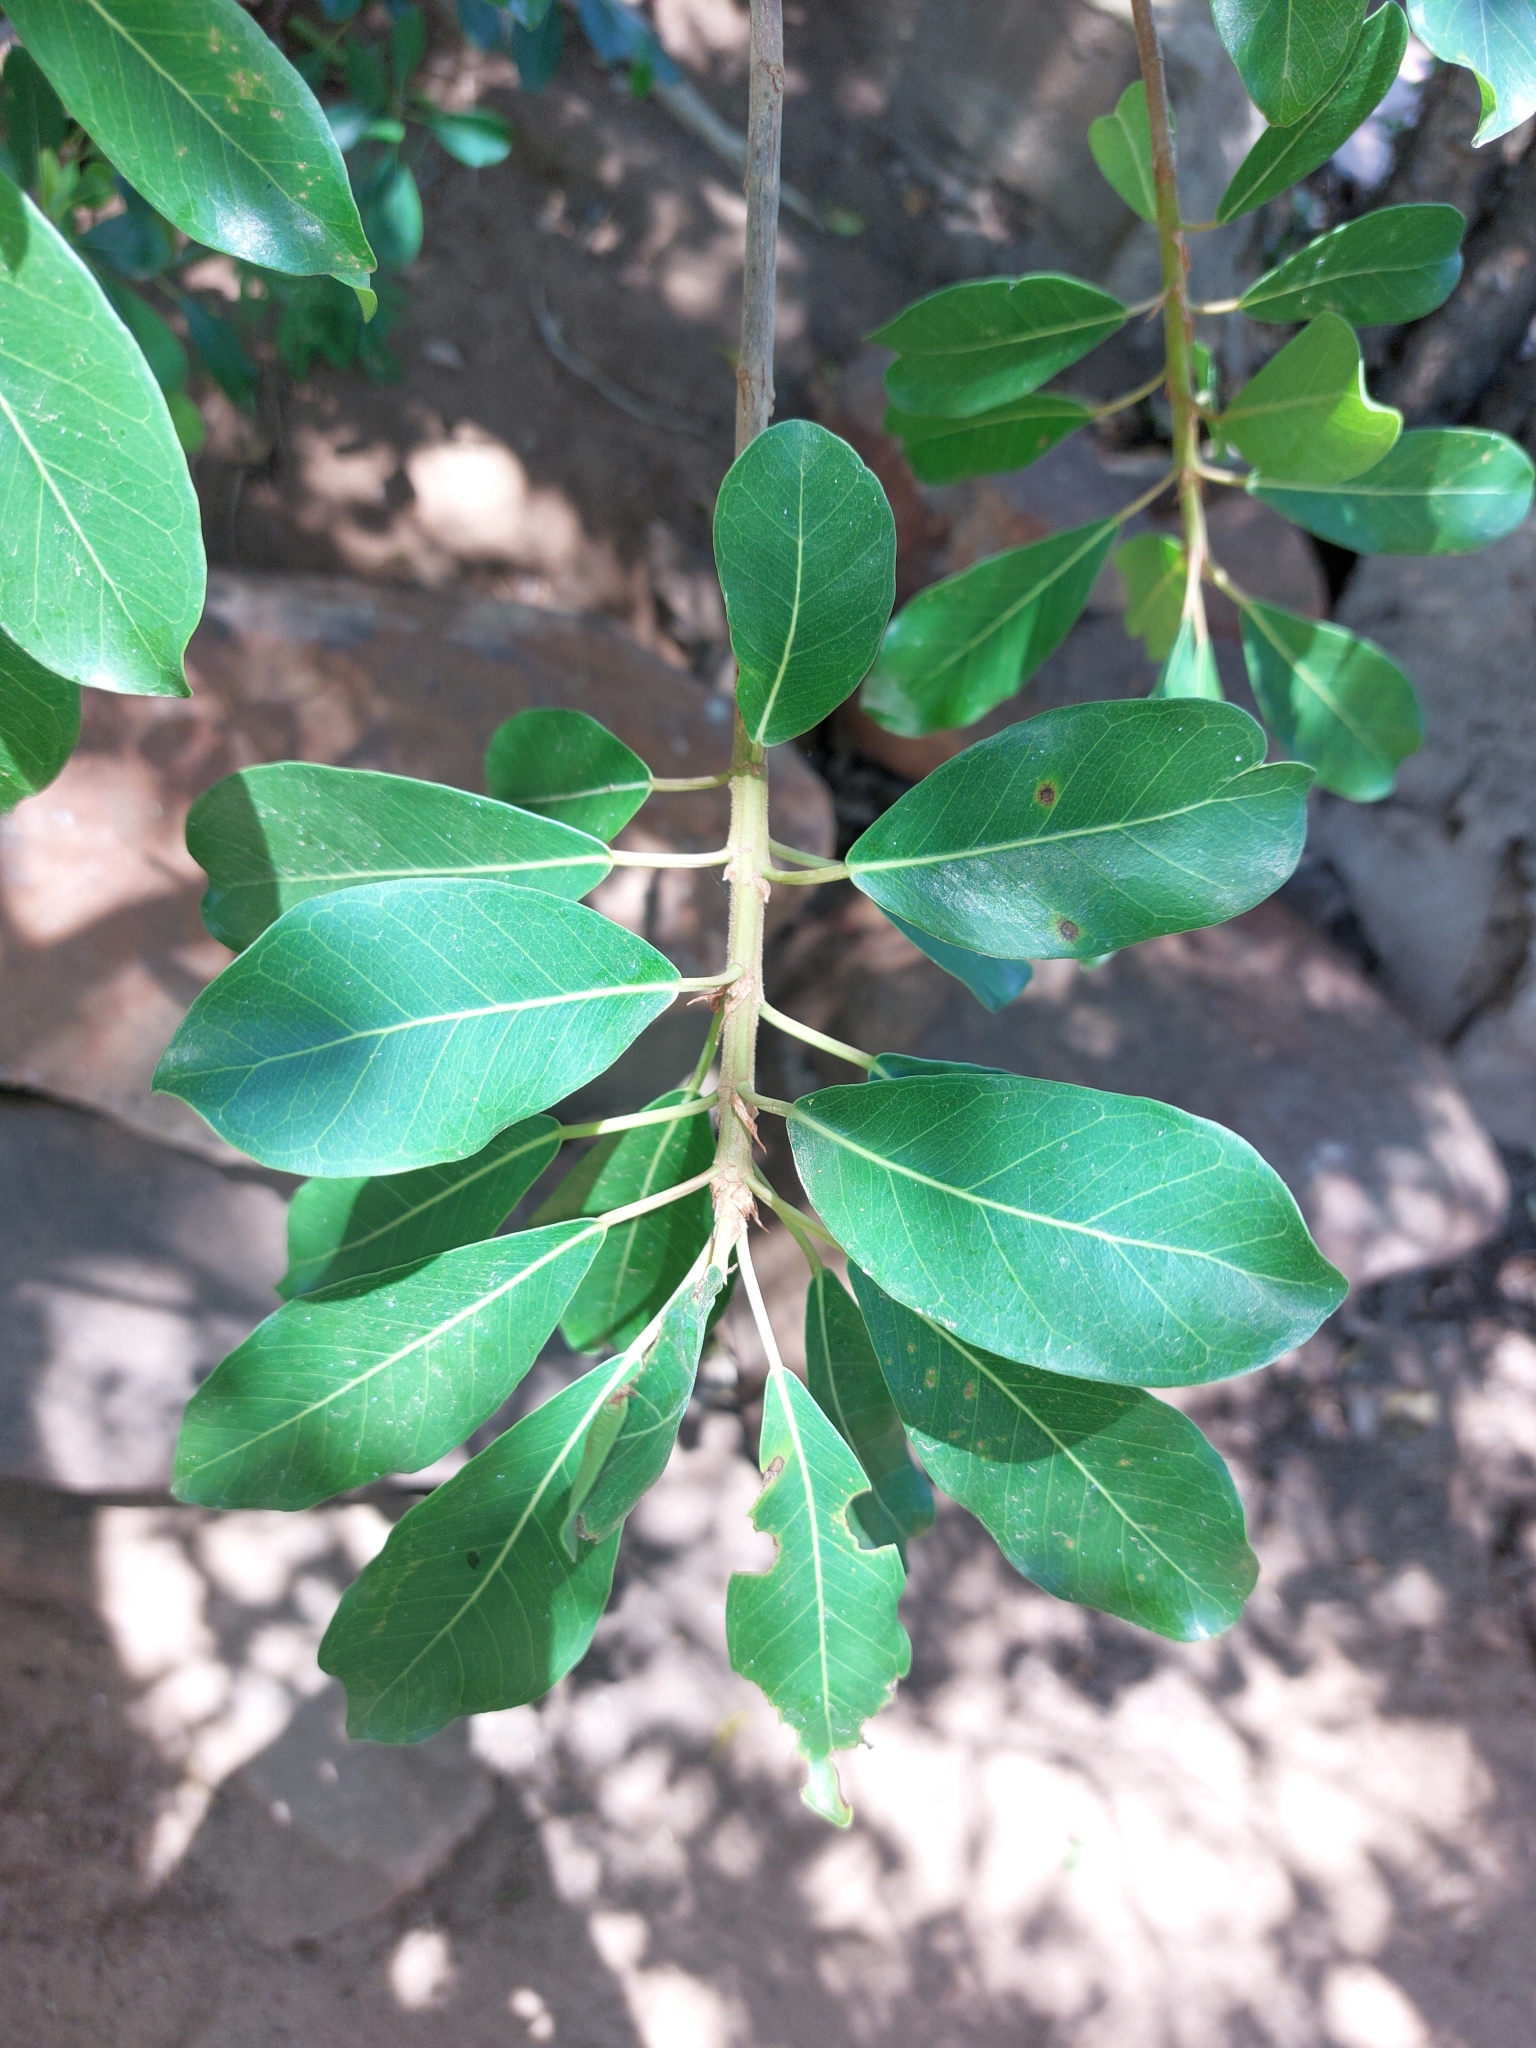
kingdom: Plantae
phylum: Tracheophyta
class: Magnoliopsida
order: Rosales
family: Moraceae
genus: Ficus
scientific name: Ficus thonningii
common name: Fig
